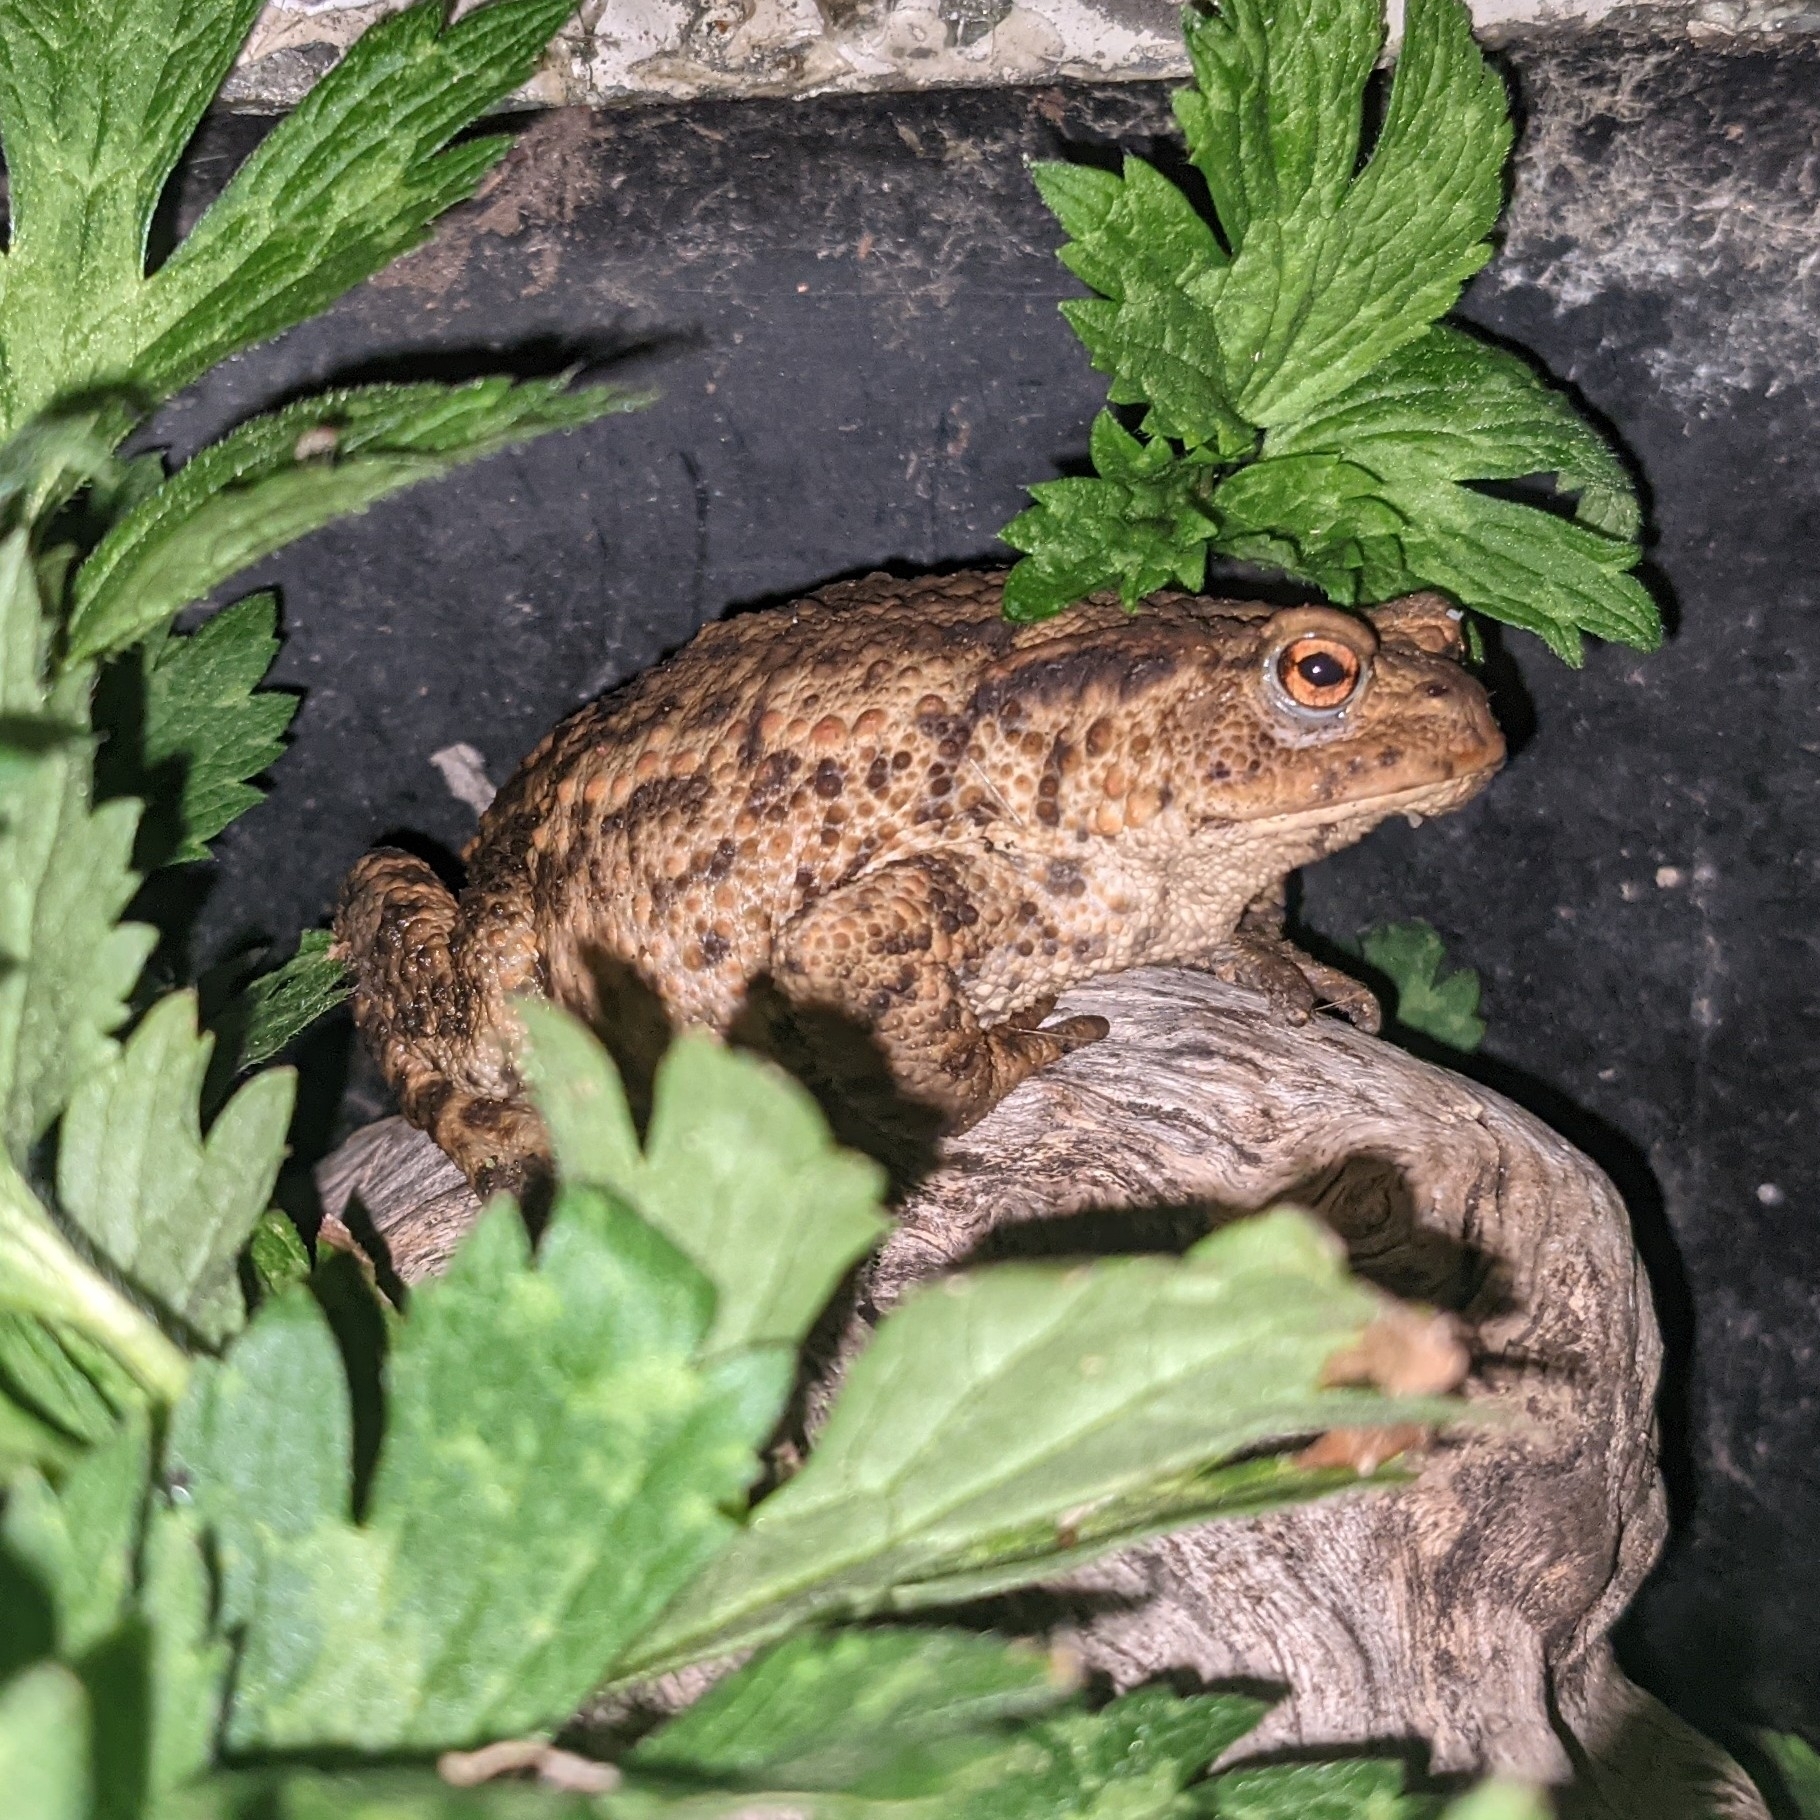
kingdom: Animalia
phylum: Chordata
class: Amphibia
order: Anura
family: Bufonidae
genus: Bufo
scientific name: Bufo bufo
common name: Common toad
